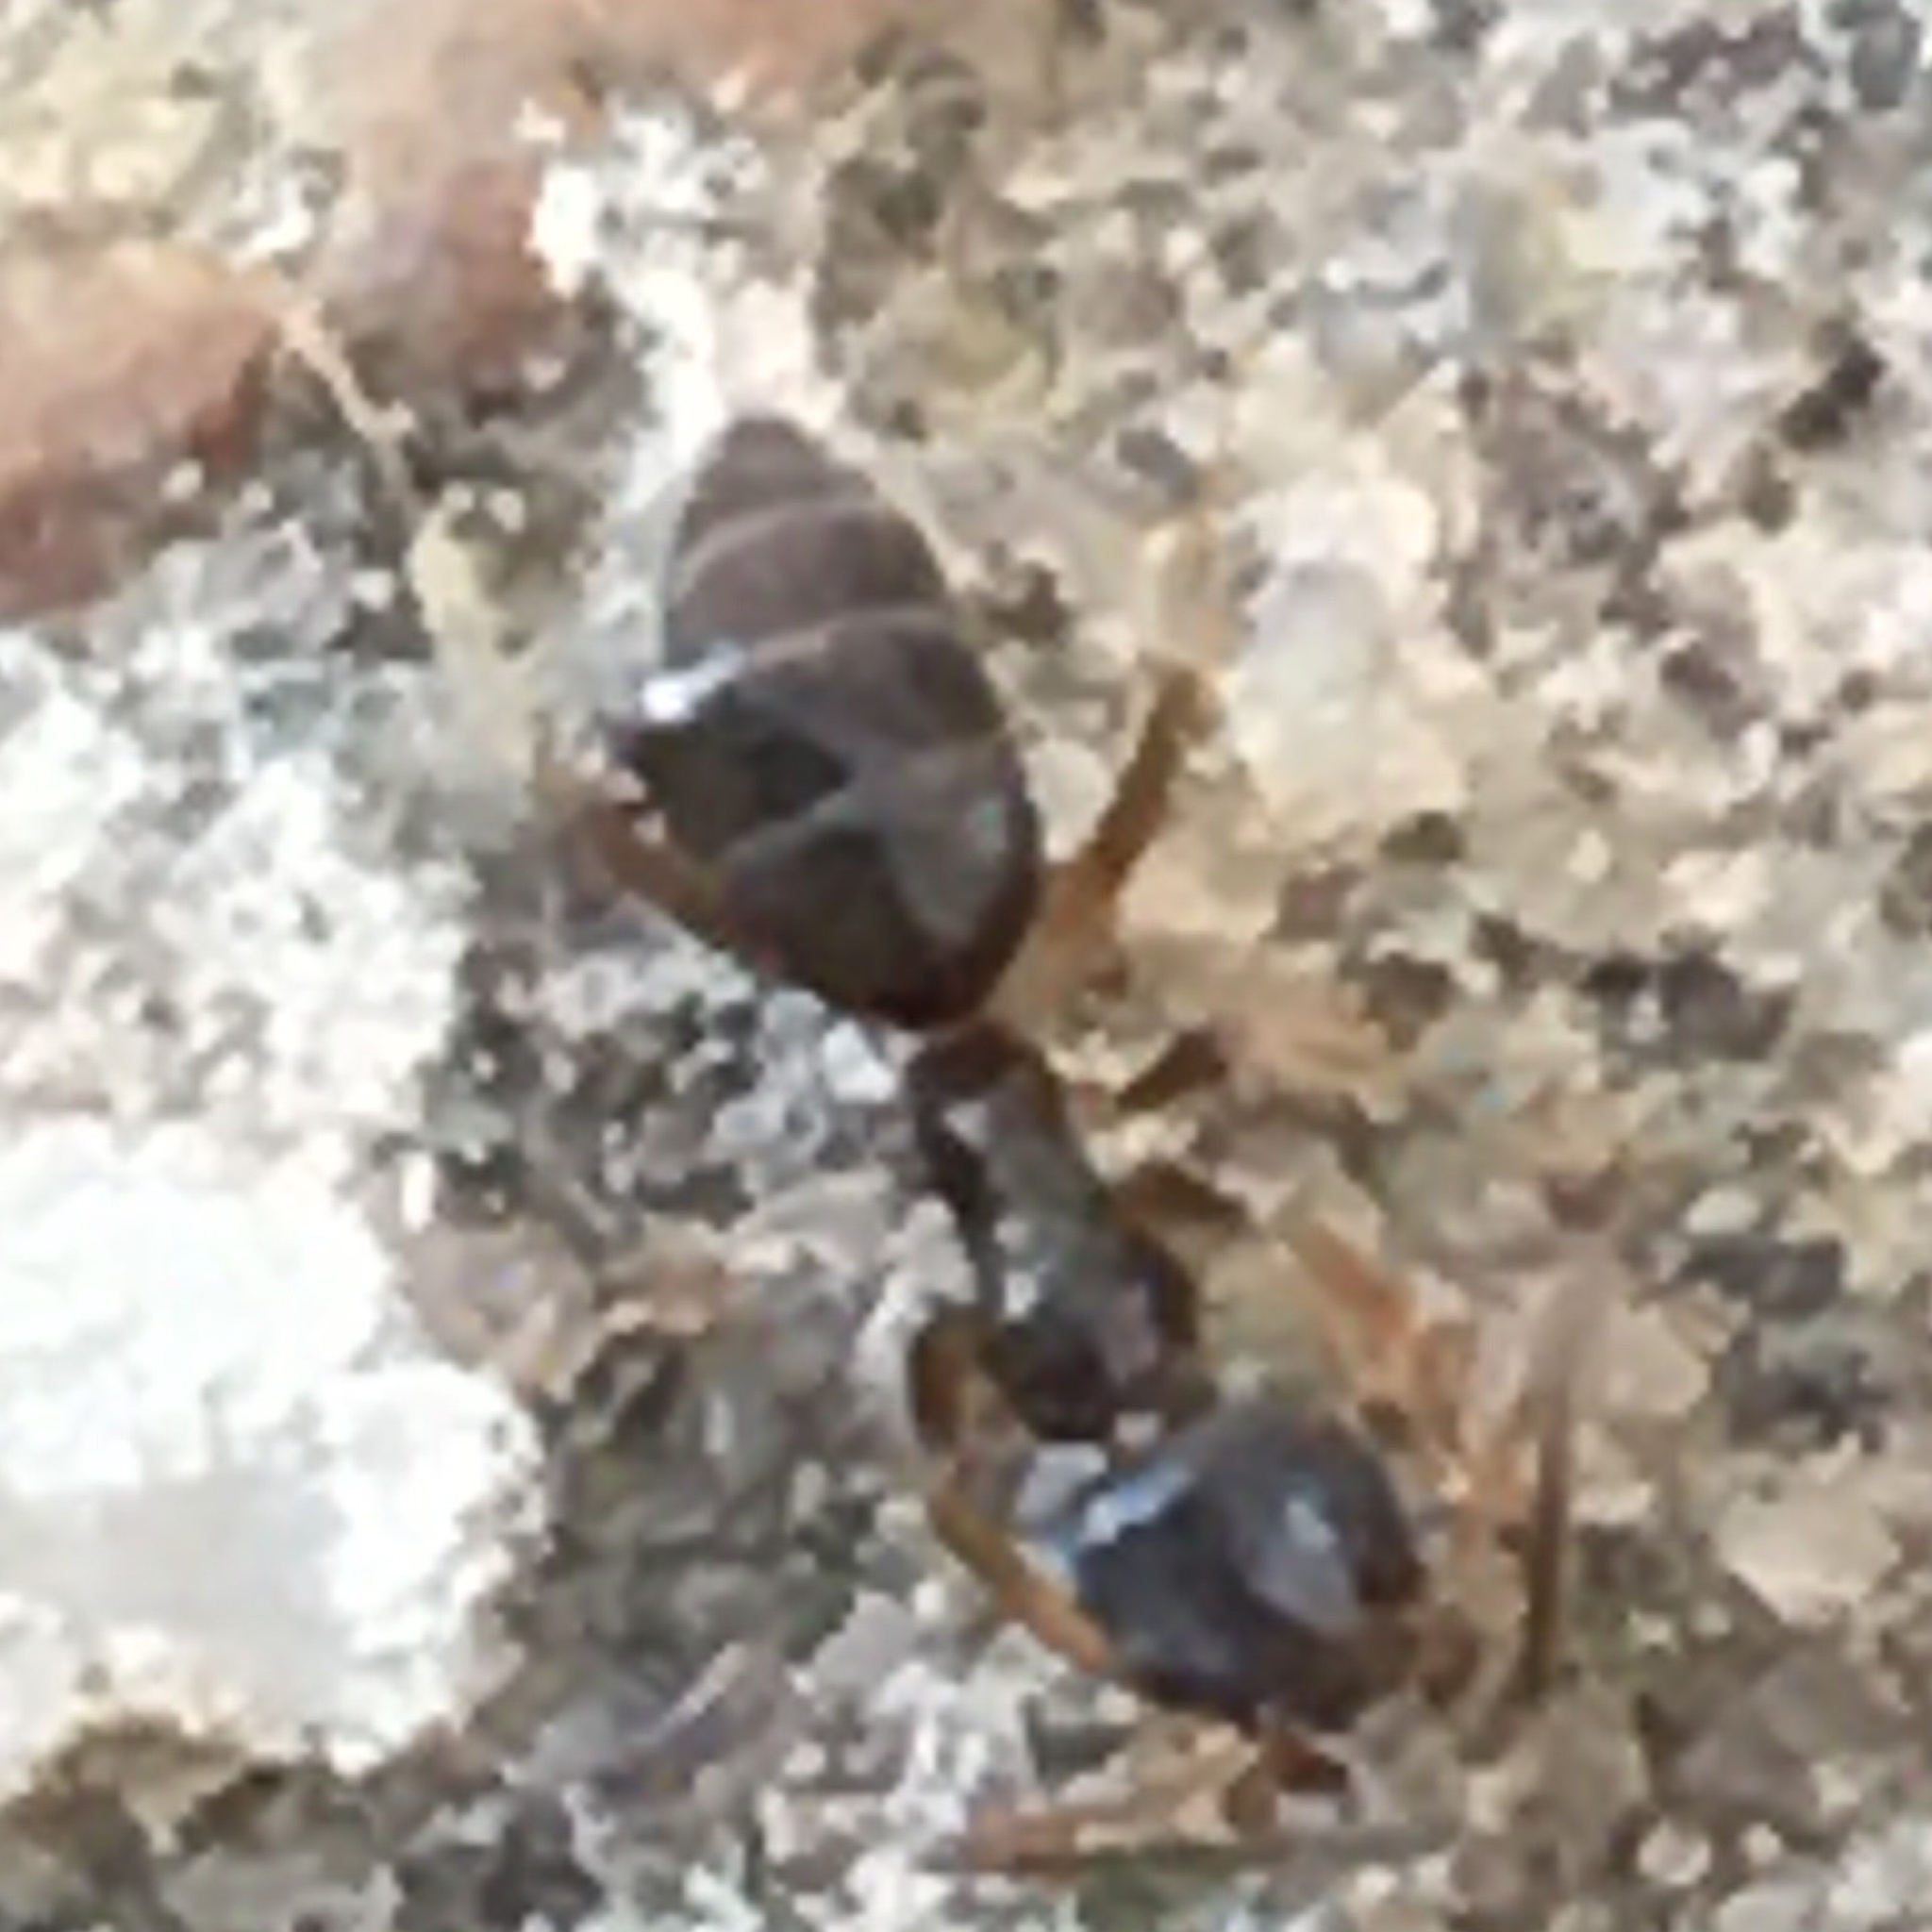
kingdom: Animalia
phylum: Arthropoda
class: Insecta
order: Hymenoptera
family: Formicidae
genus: Tapinoma
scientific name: Tapinoma sessile
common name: Odorous house ant
